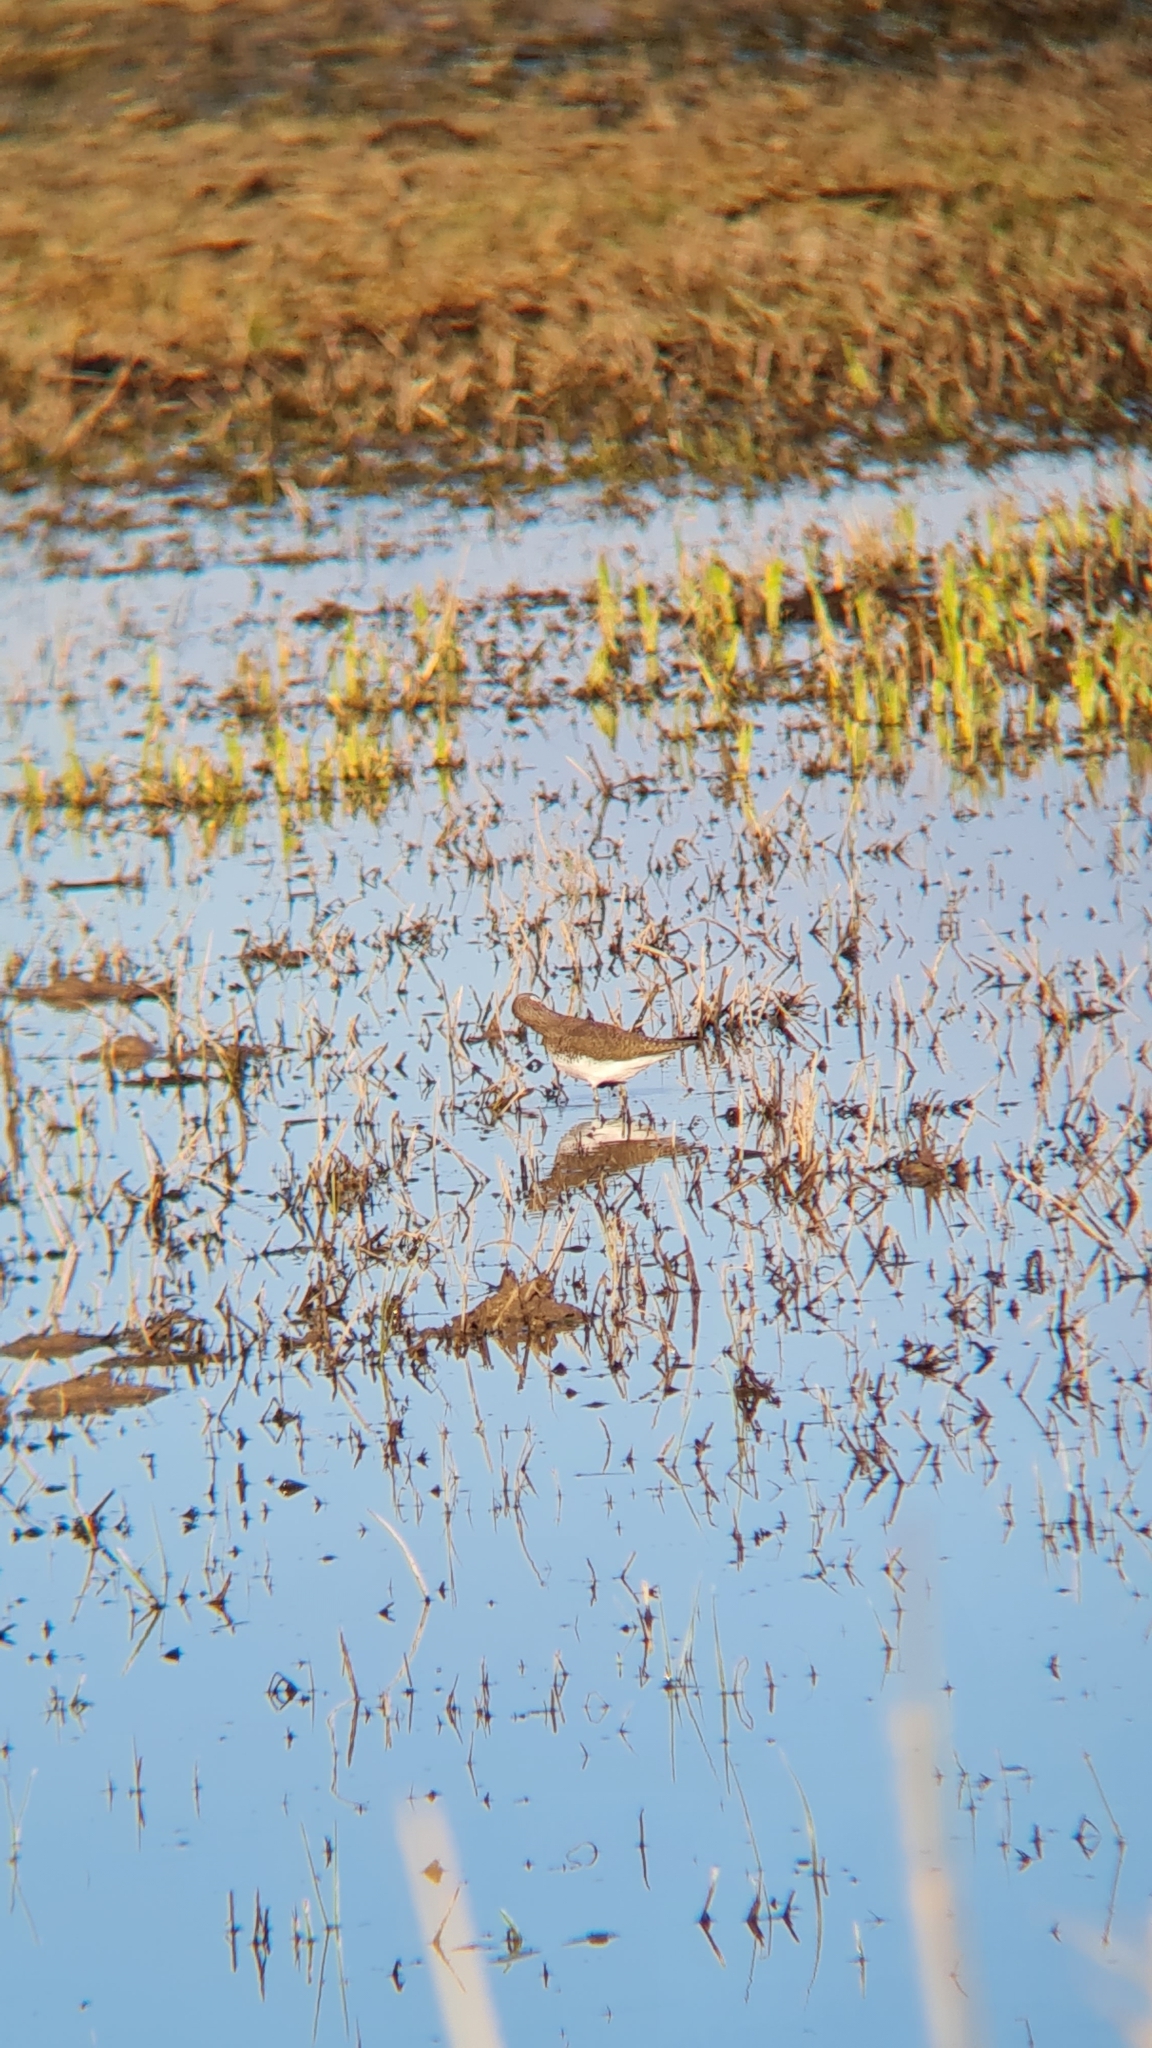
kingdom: Animalia
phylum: Chordata
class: Aves
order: Charadriiformes
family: Scolopacidae
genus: Tringa
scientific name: Tringa ochropus
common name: Green sandpiper
